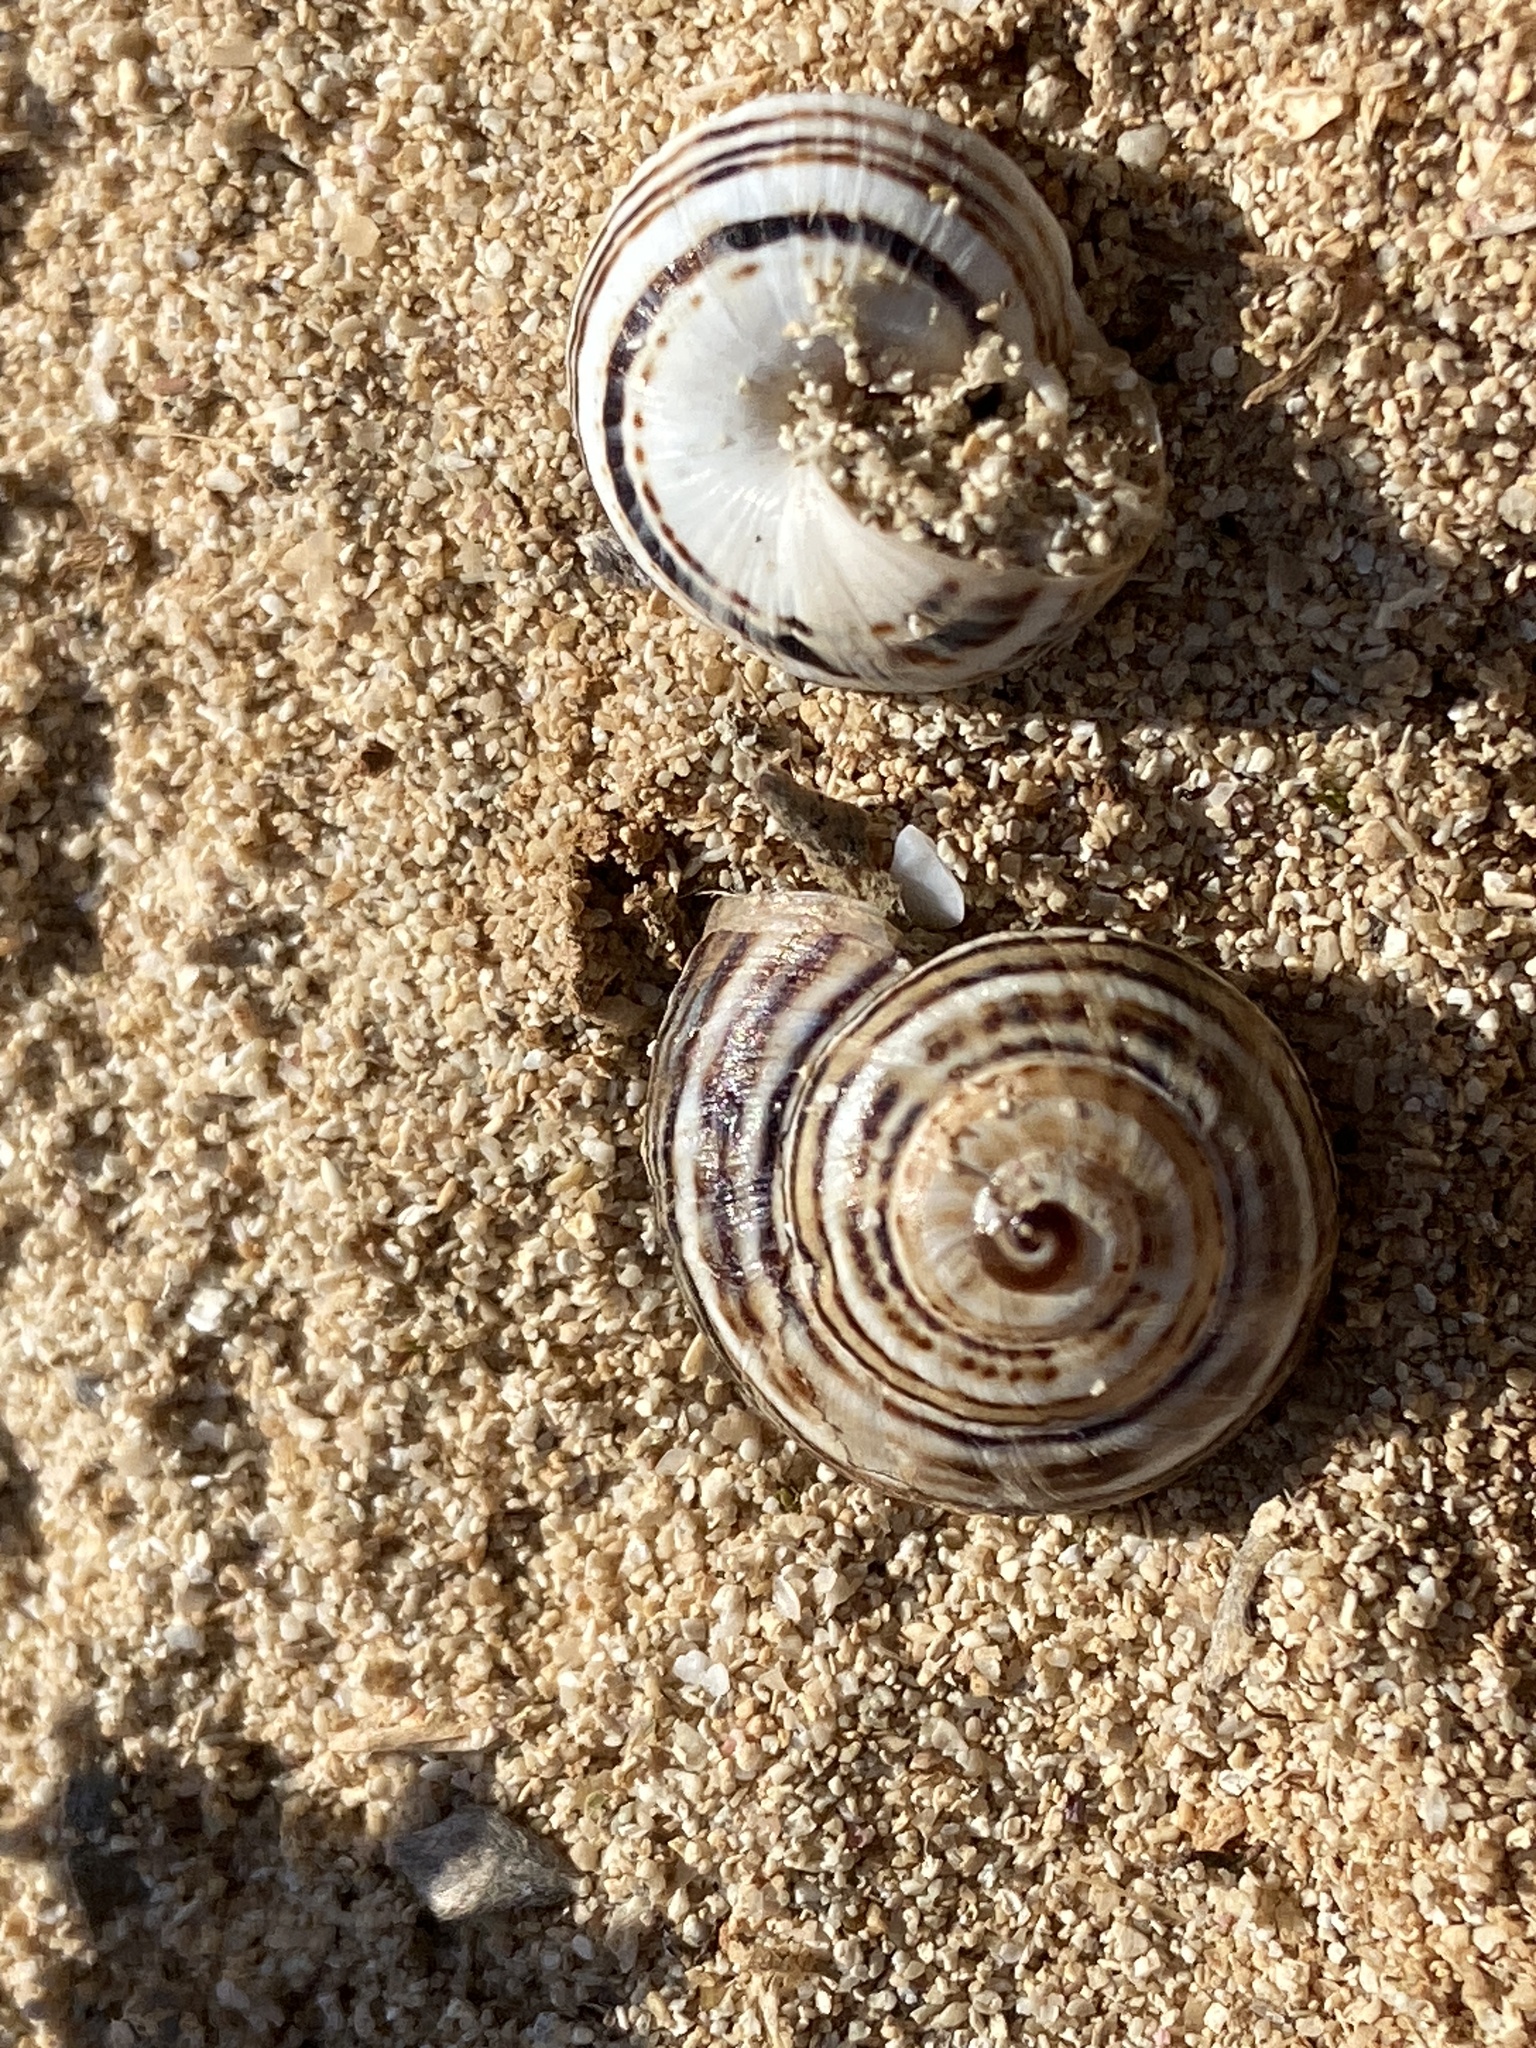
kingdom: Animalia
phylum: Mollusca
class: Gastropoda
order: Stylommatophora
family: Helicidae
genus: Theba
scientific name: Theba pisana
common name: White snail
